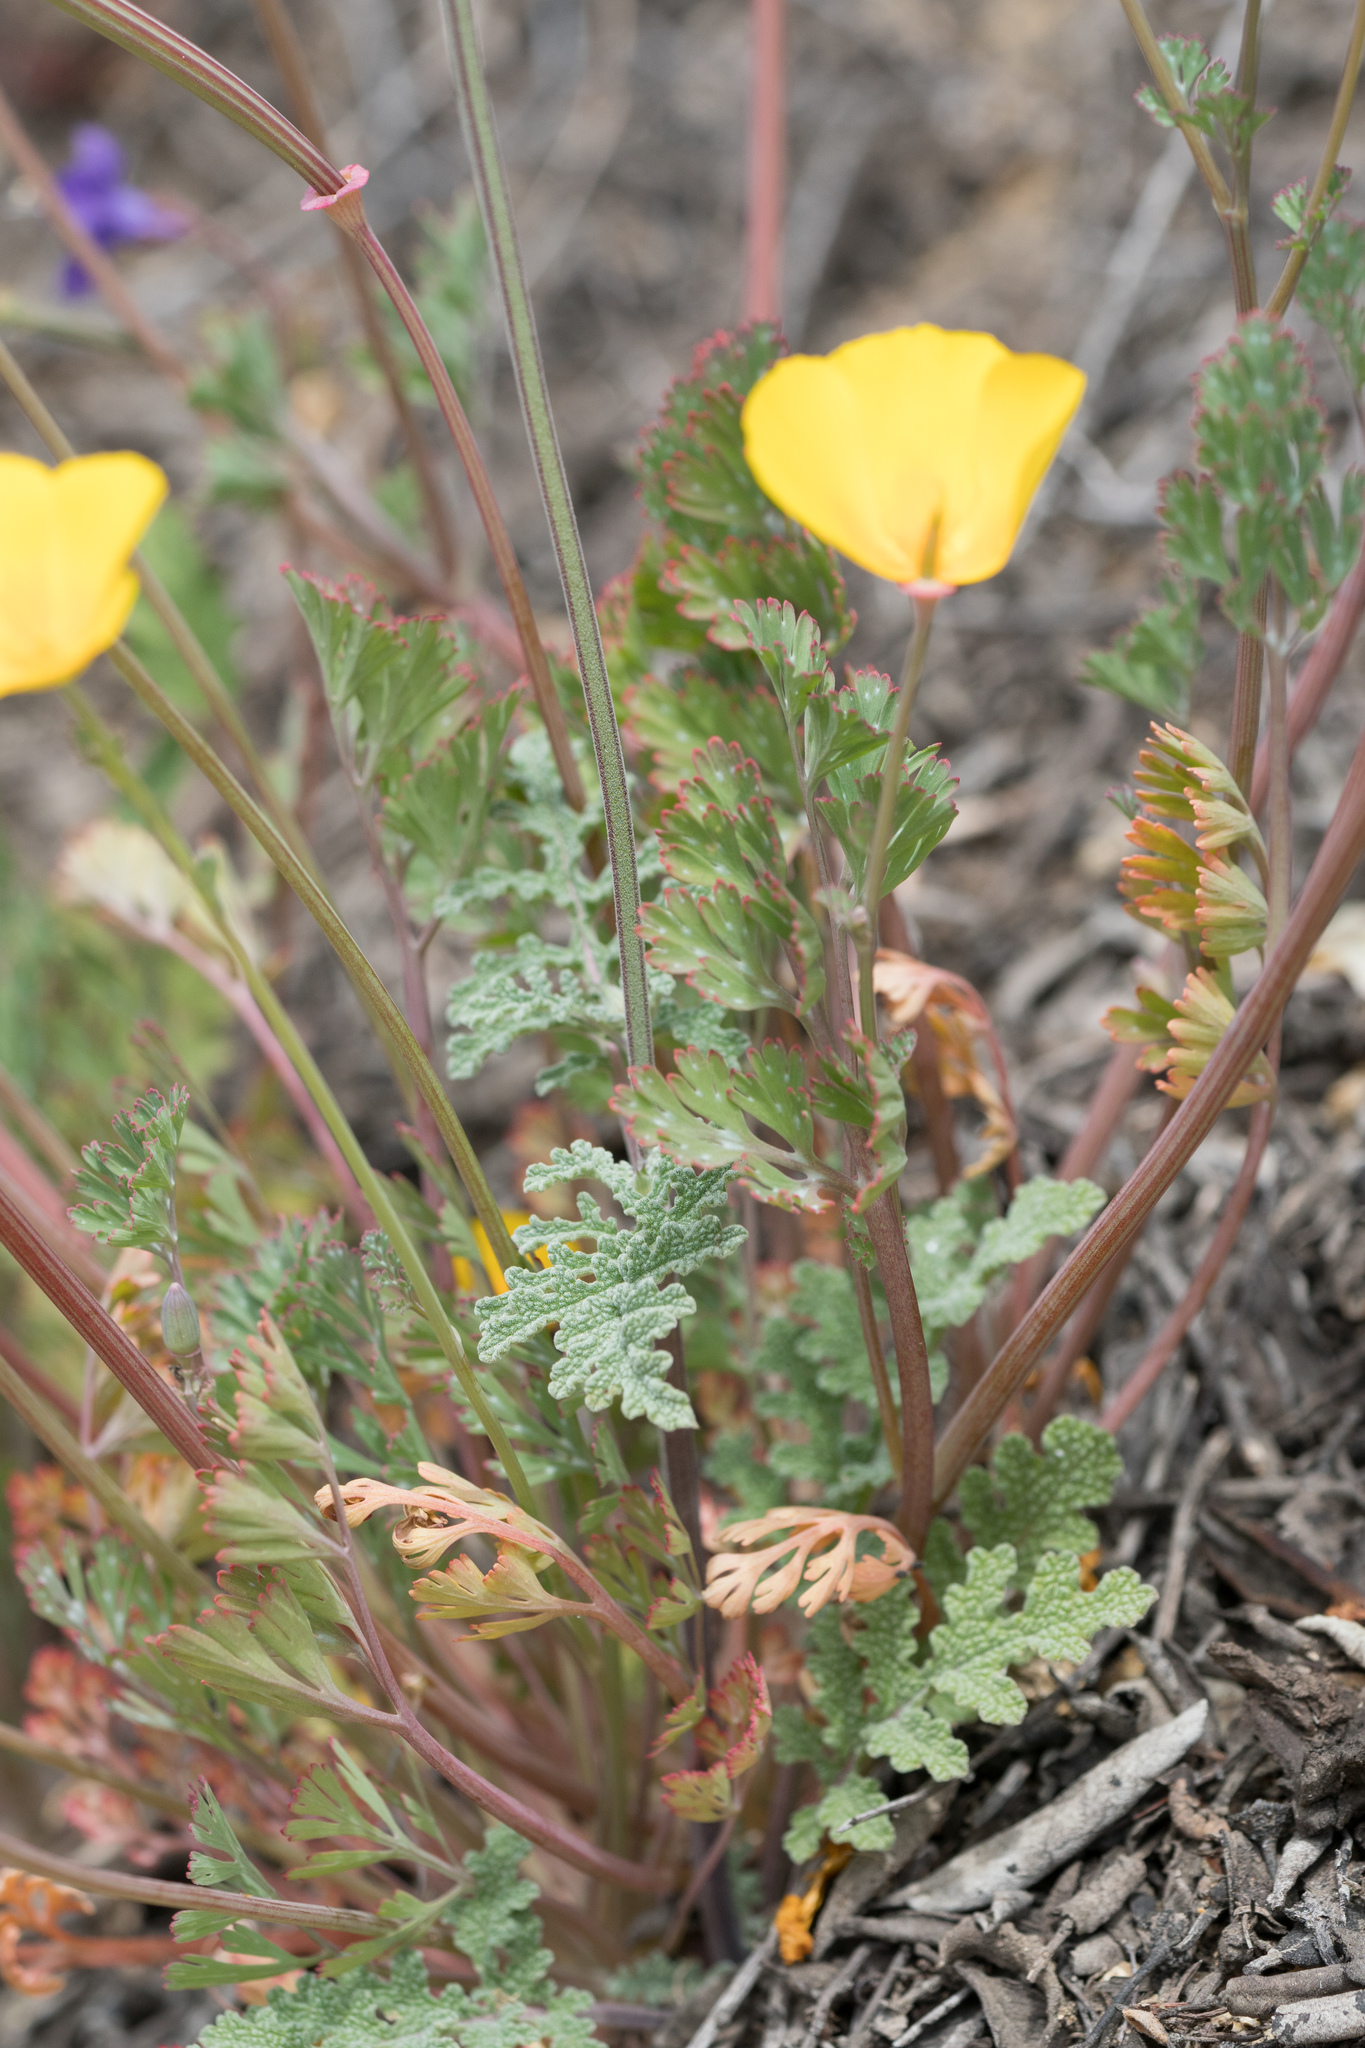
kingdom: Plantae
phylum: Tracheophyta
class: Magnoliopsida
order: Ranunculales
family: Papaveraceae
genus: Eschscholzia
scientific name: Eschscholzia californica
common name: California poppy
